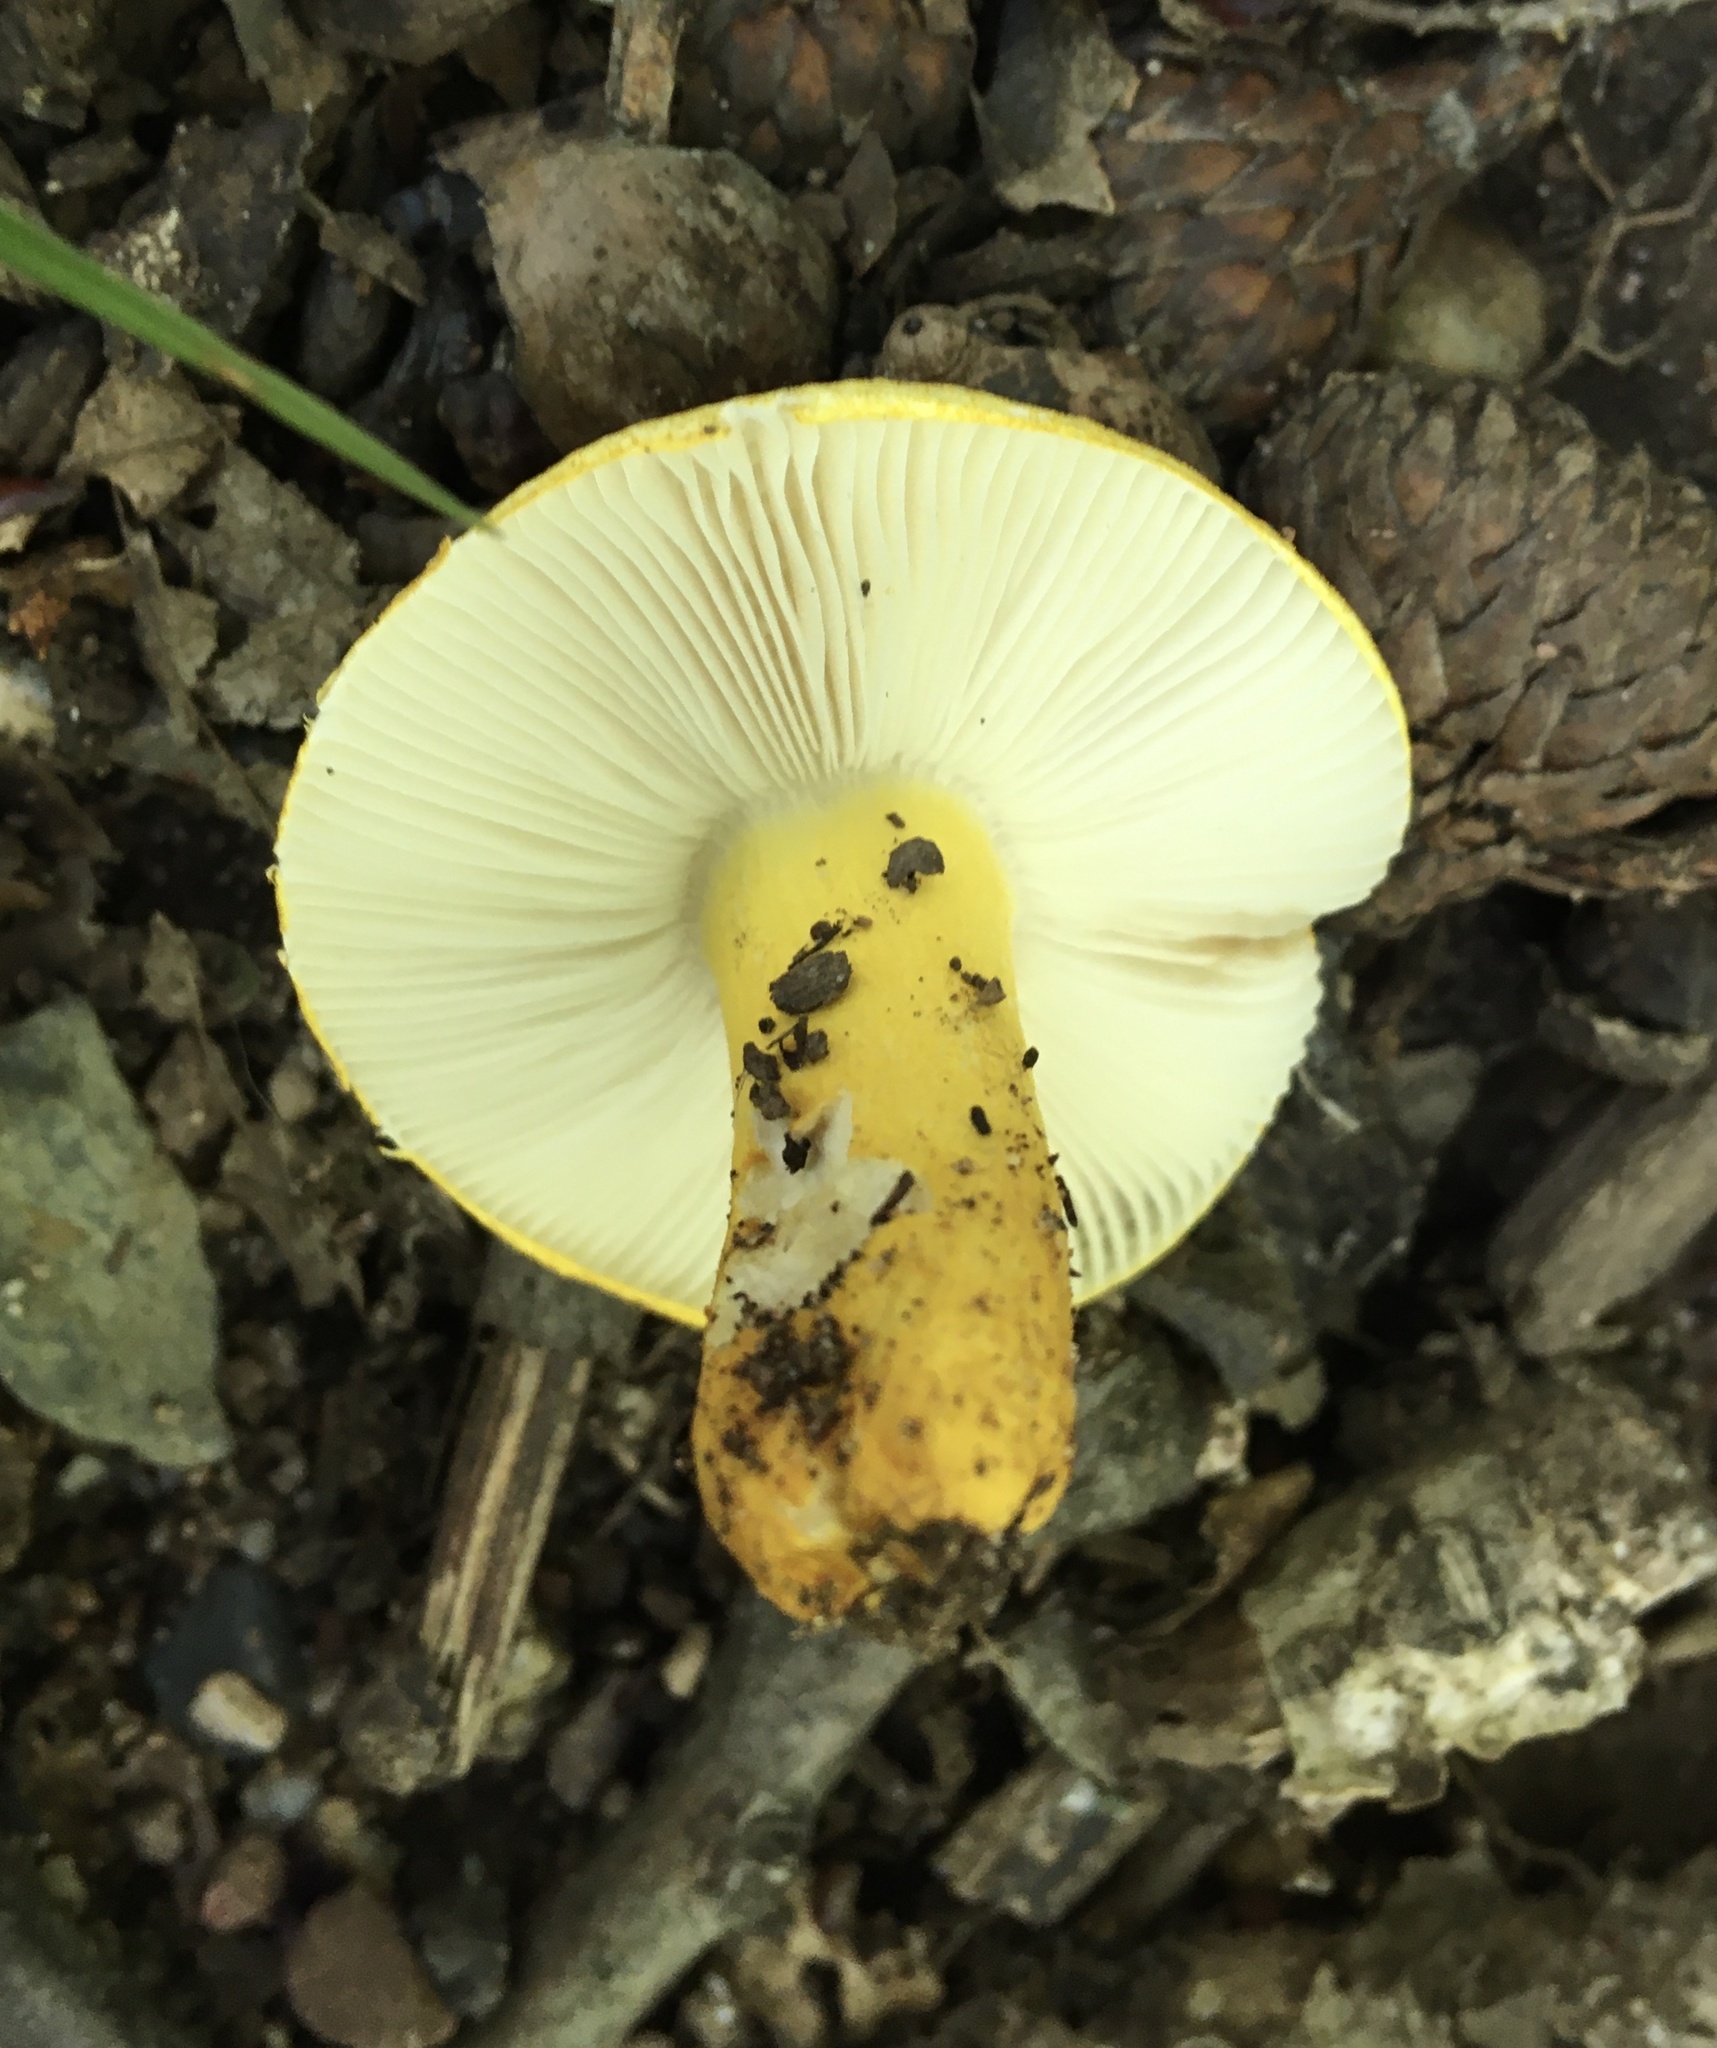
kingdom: Fungi
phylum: Basidiomycota
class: Agaricomycetes
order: Russulales
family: Russulaceae
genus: Russula
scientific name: Russula flavida
